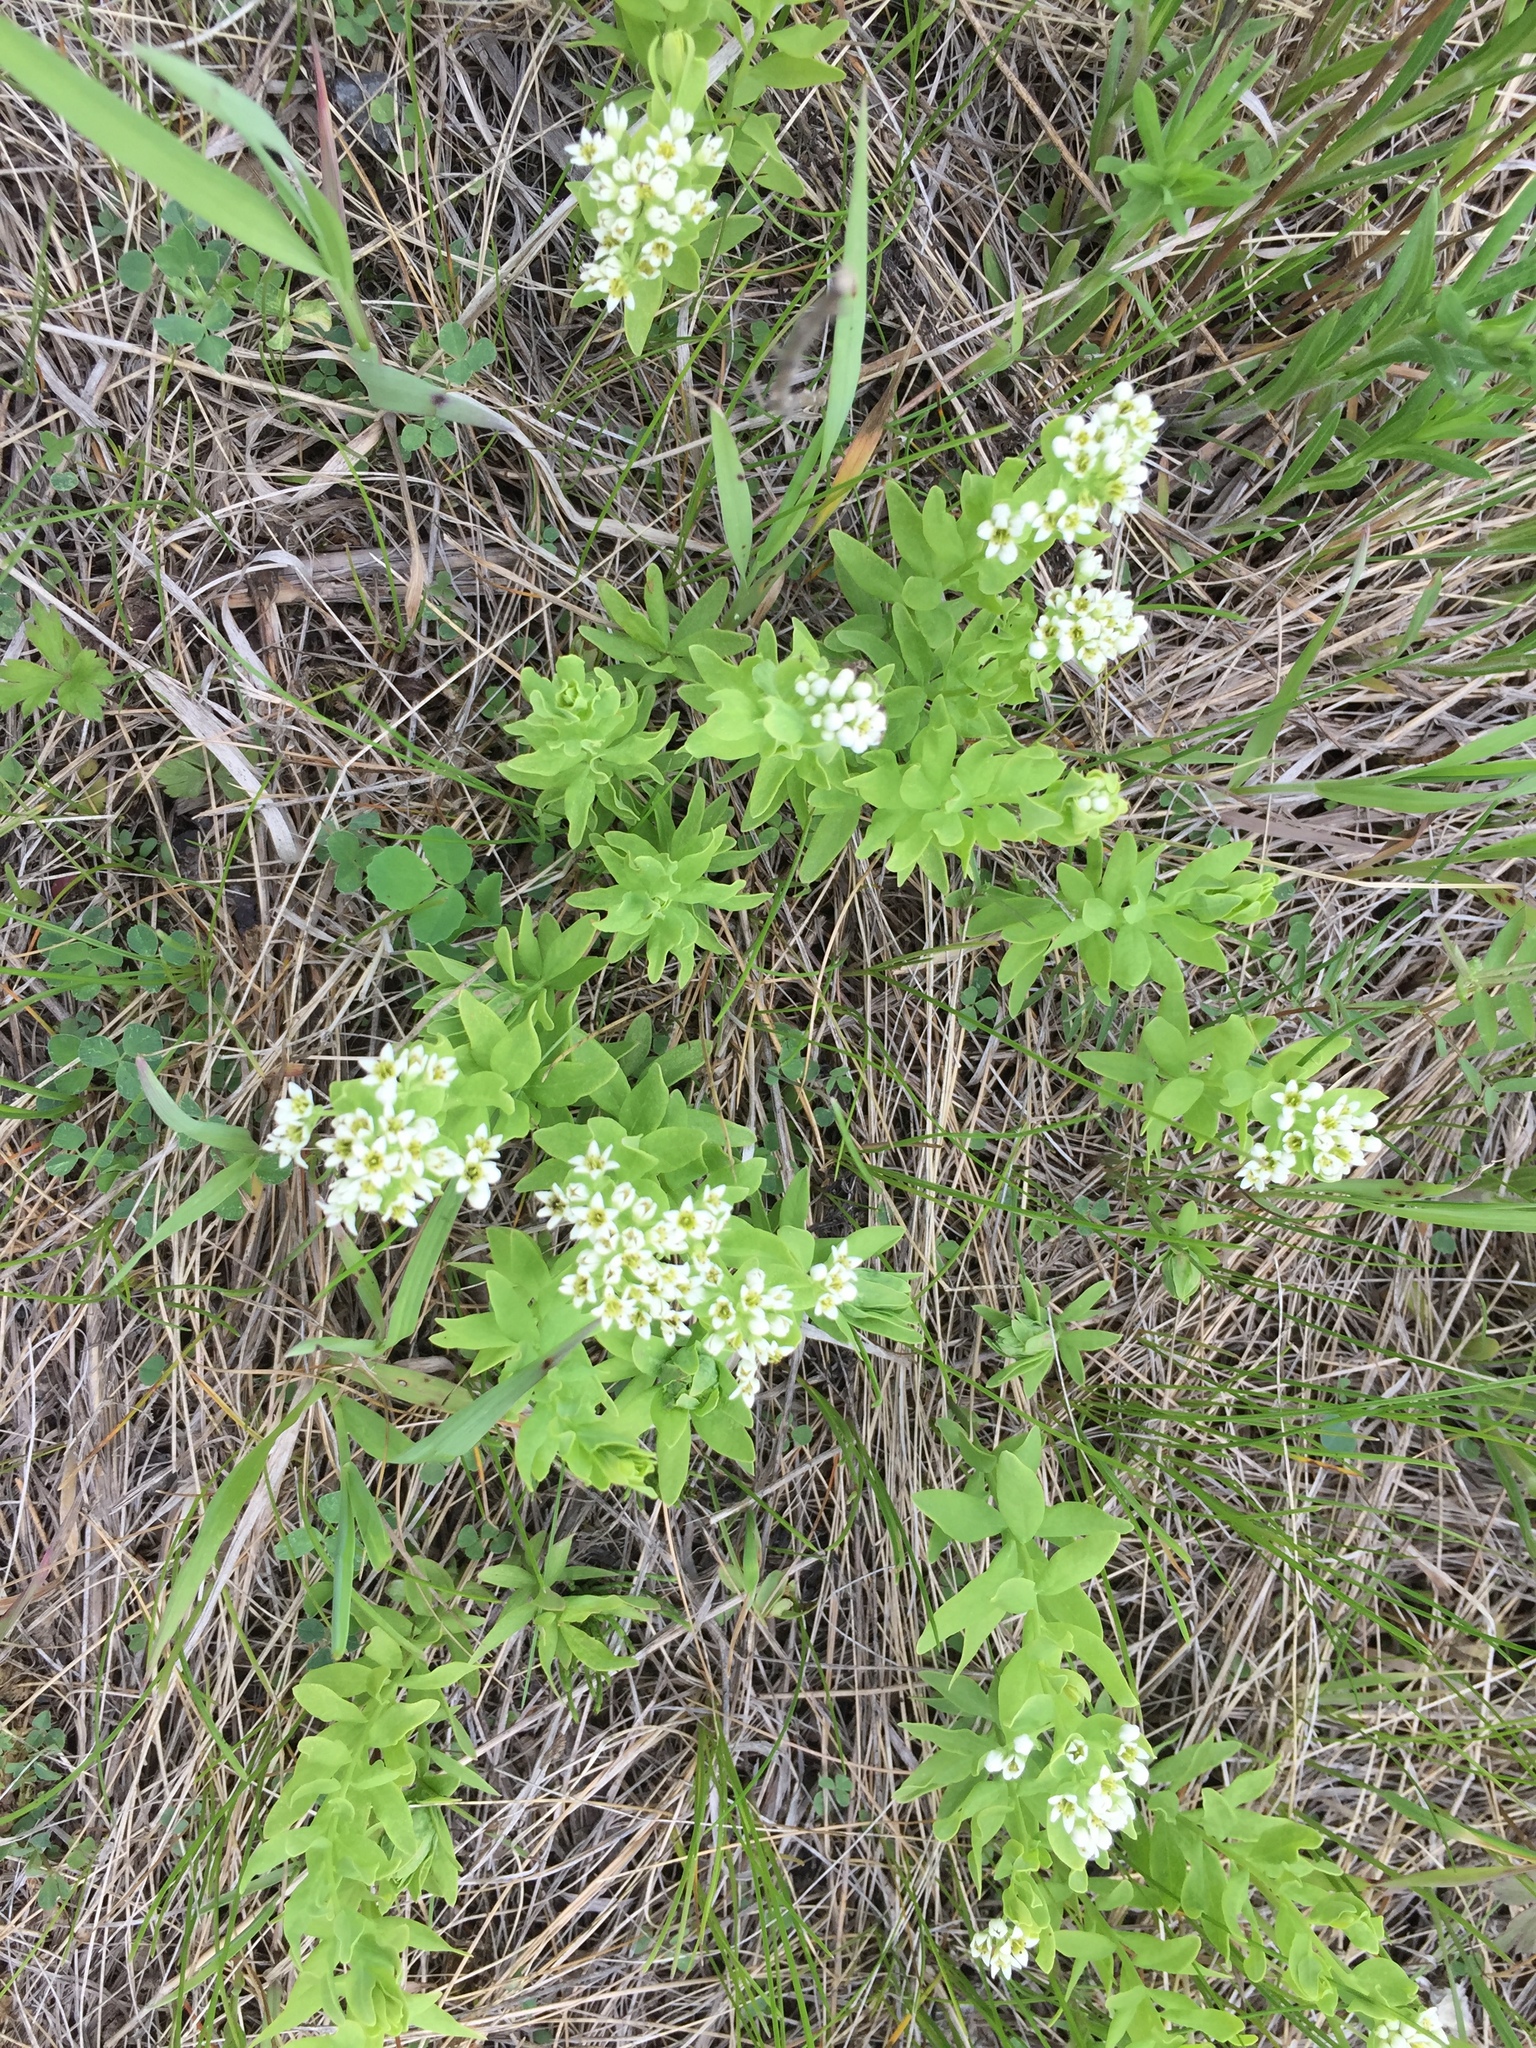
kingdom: Plantae
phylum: Tracheophyta
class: Magnoliopsida
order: Santalales
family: Comandraceae
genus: Comandra
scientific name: Comandra umbellata
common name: Bastard toadflax
